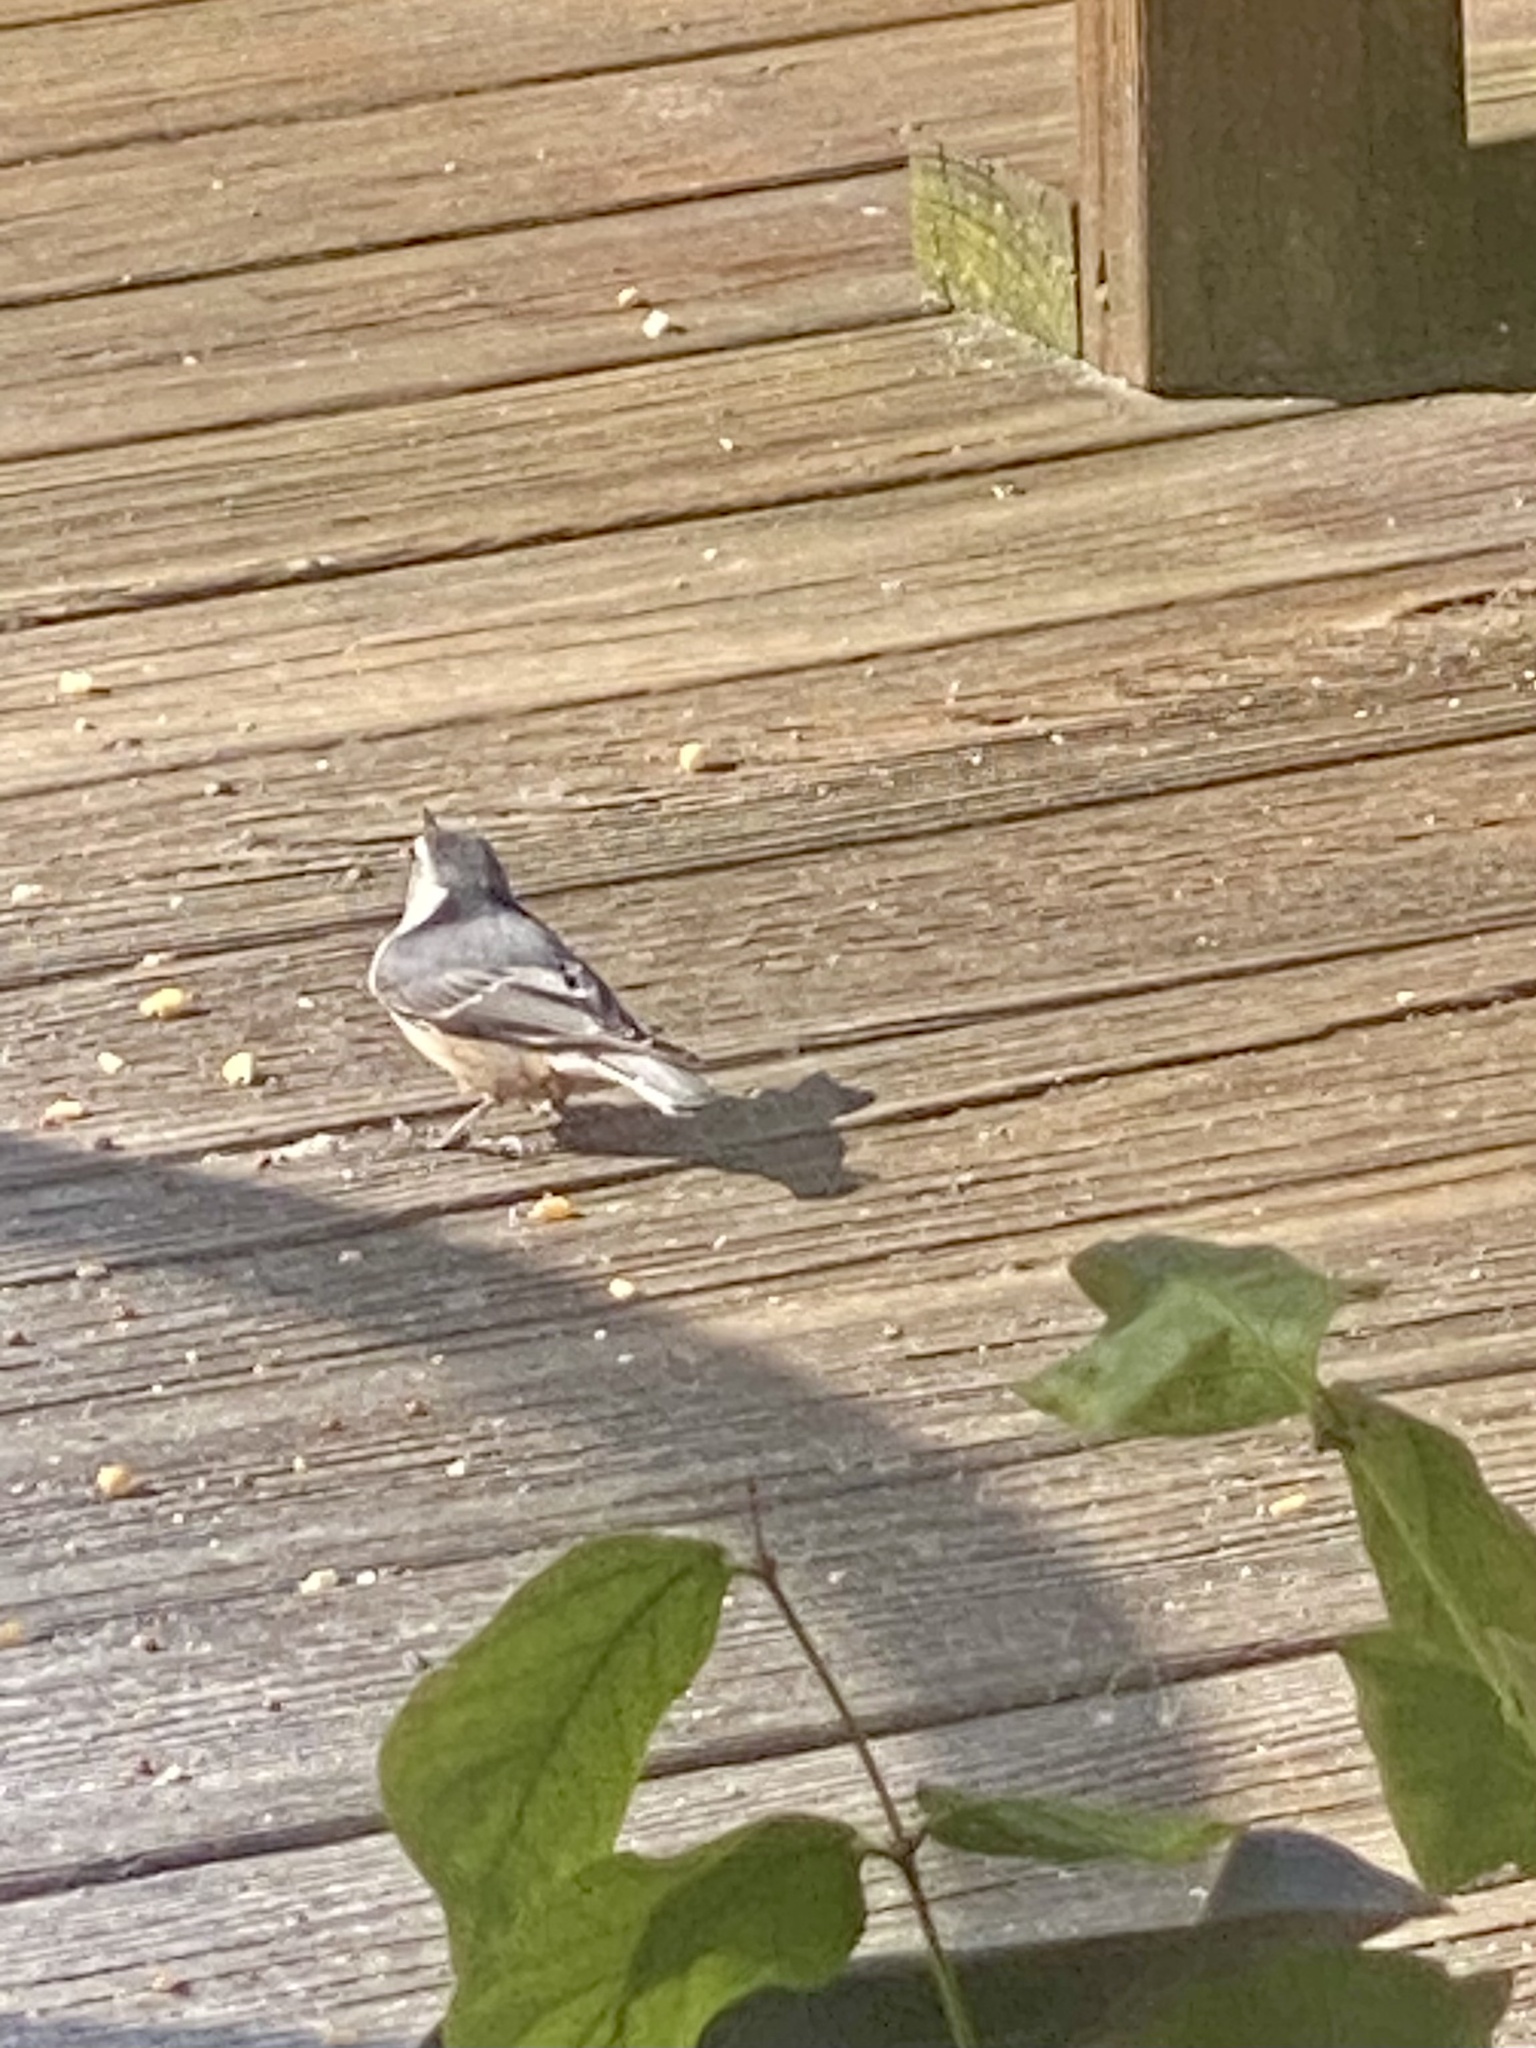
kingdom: Animalia
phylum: Chordata
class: Aves
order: Passeriformes
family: Sittidae
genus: Sitta
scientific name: Sitta carolinensis
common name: White-breasted nuthatch
